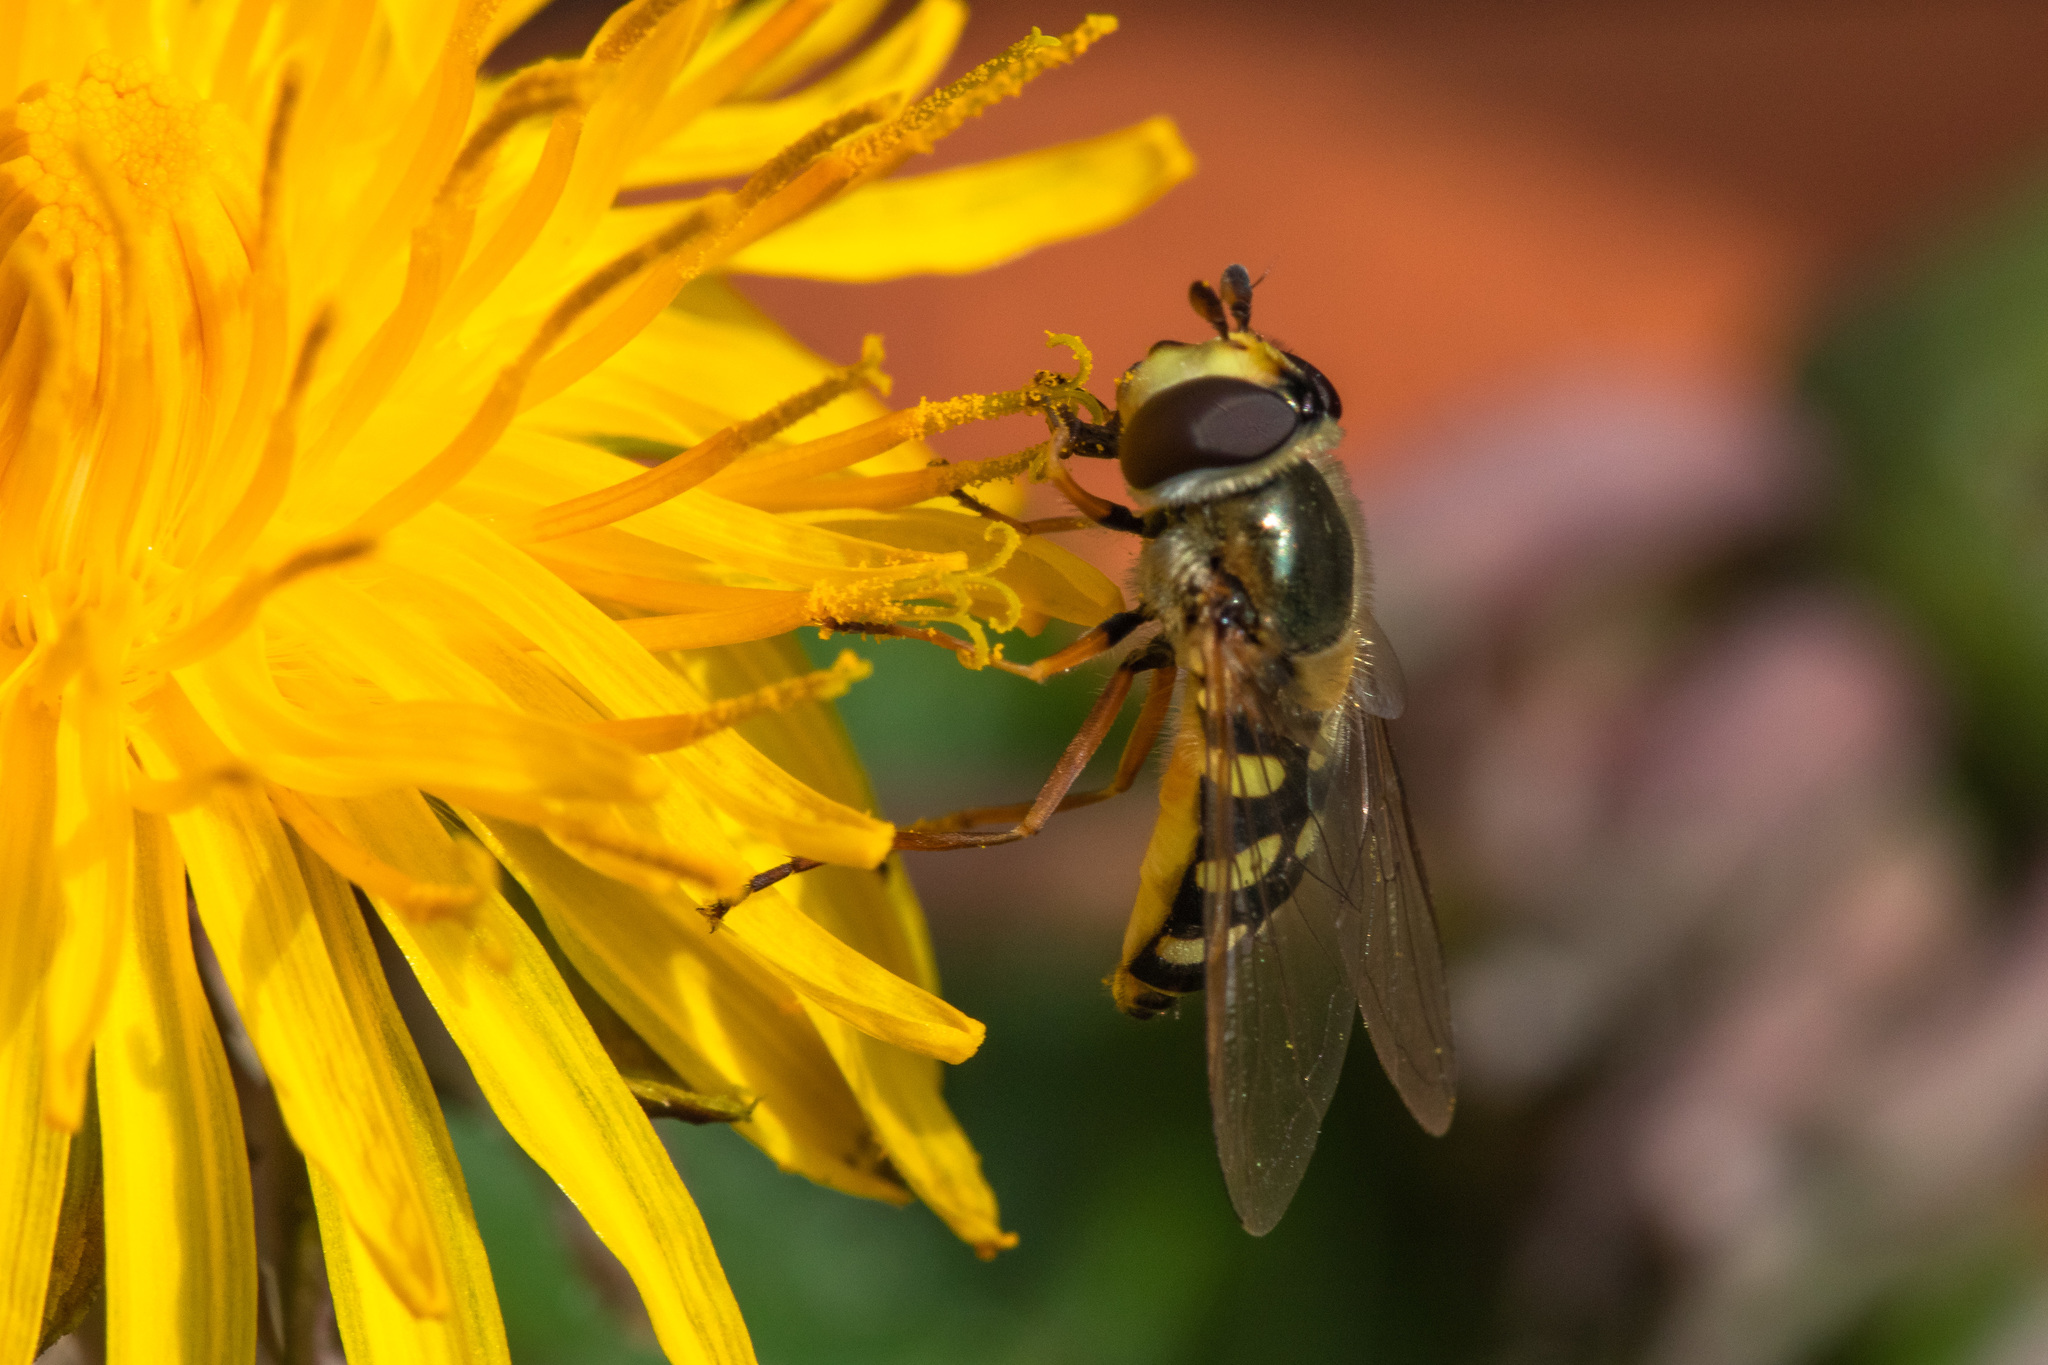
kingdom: Animalia
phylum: Arthropoda
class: Insecta
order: Diptera
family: Syrphidae
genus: Eupeodes
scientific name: Eupeodes
